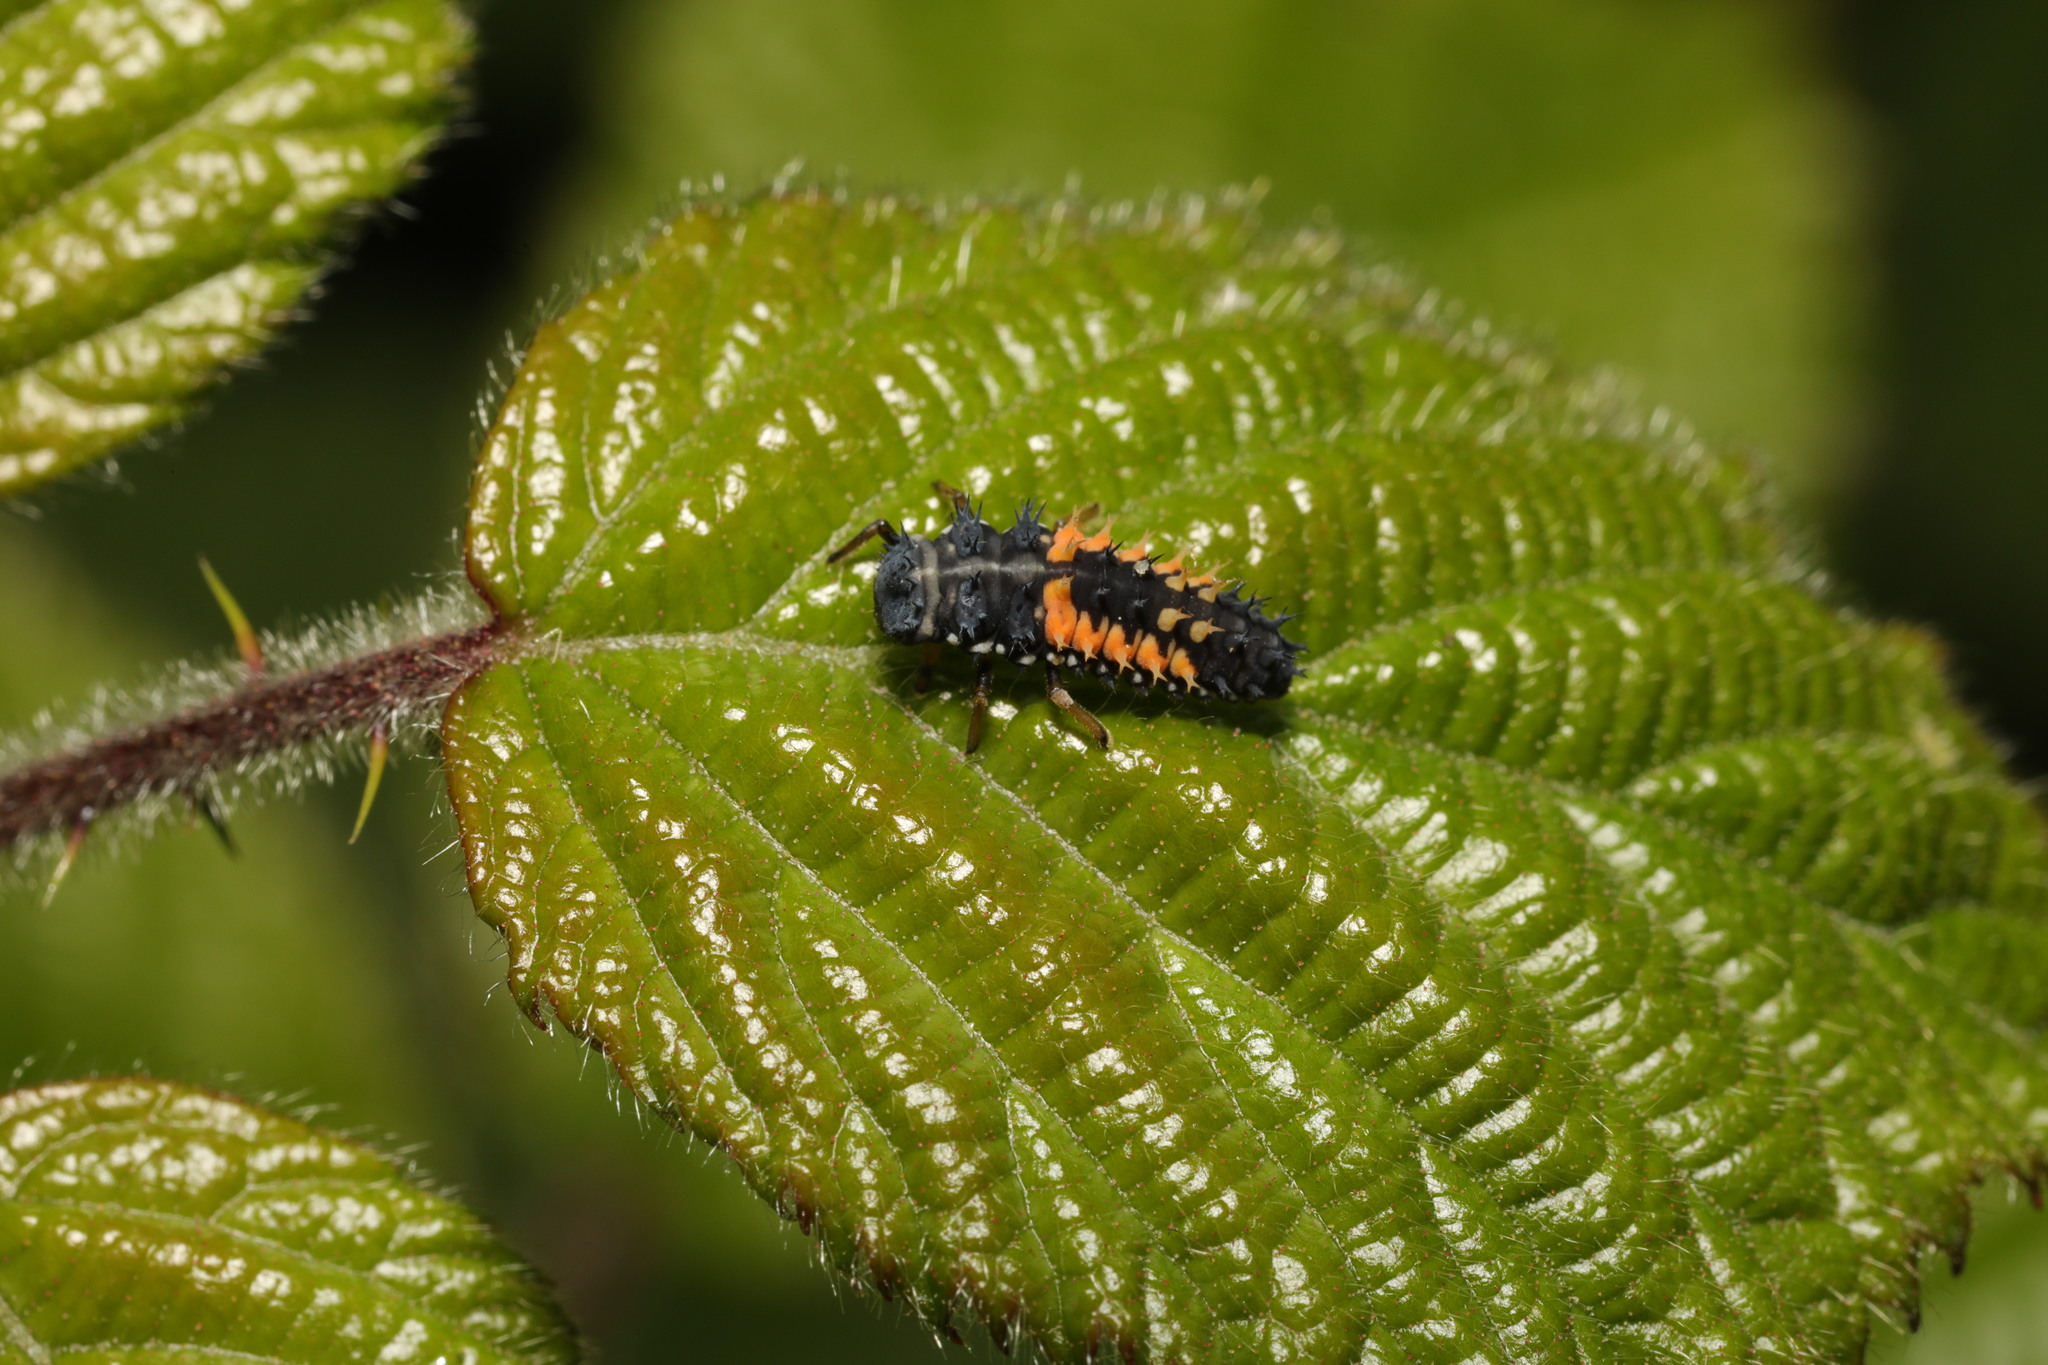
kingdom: Animalia
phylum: Arthropoda
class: Insecta
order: Coleoptera
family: Coccinellidae
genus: Harmonia
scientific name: Harmonia axyridis
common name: Harlequin ladybird
